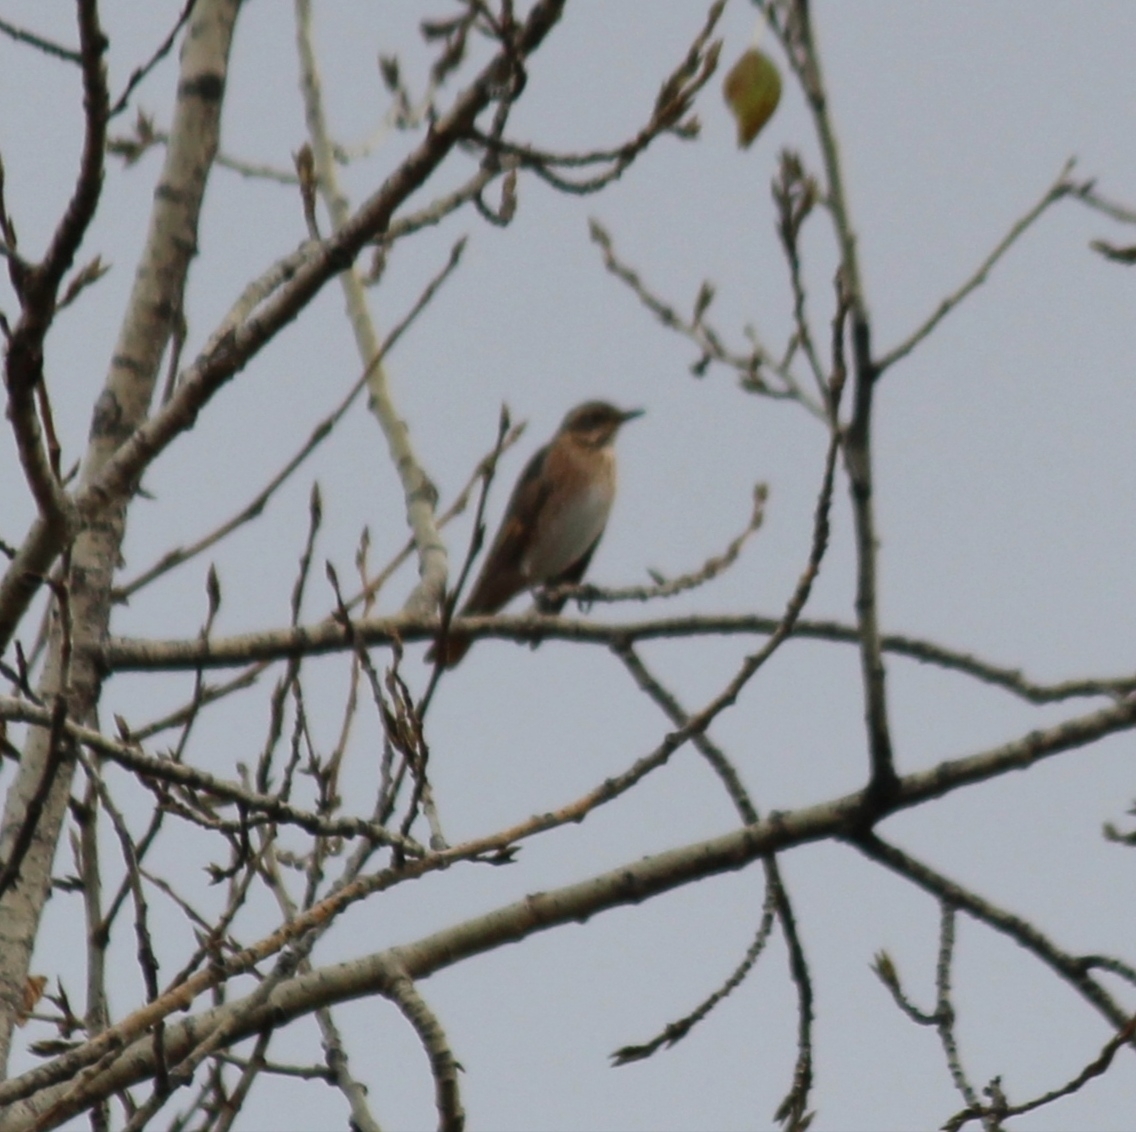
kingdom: Animalia
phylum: Chordata
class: Aves
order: Passeriformes
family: Turdidae
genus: Turdus
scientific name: Turdus naumanni
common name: Naumann's thrush
